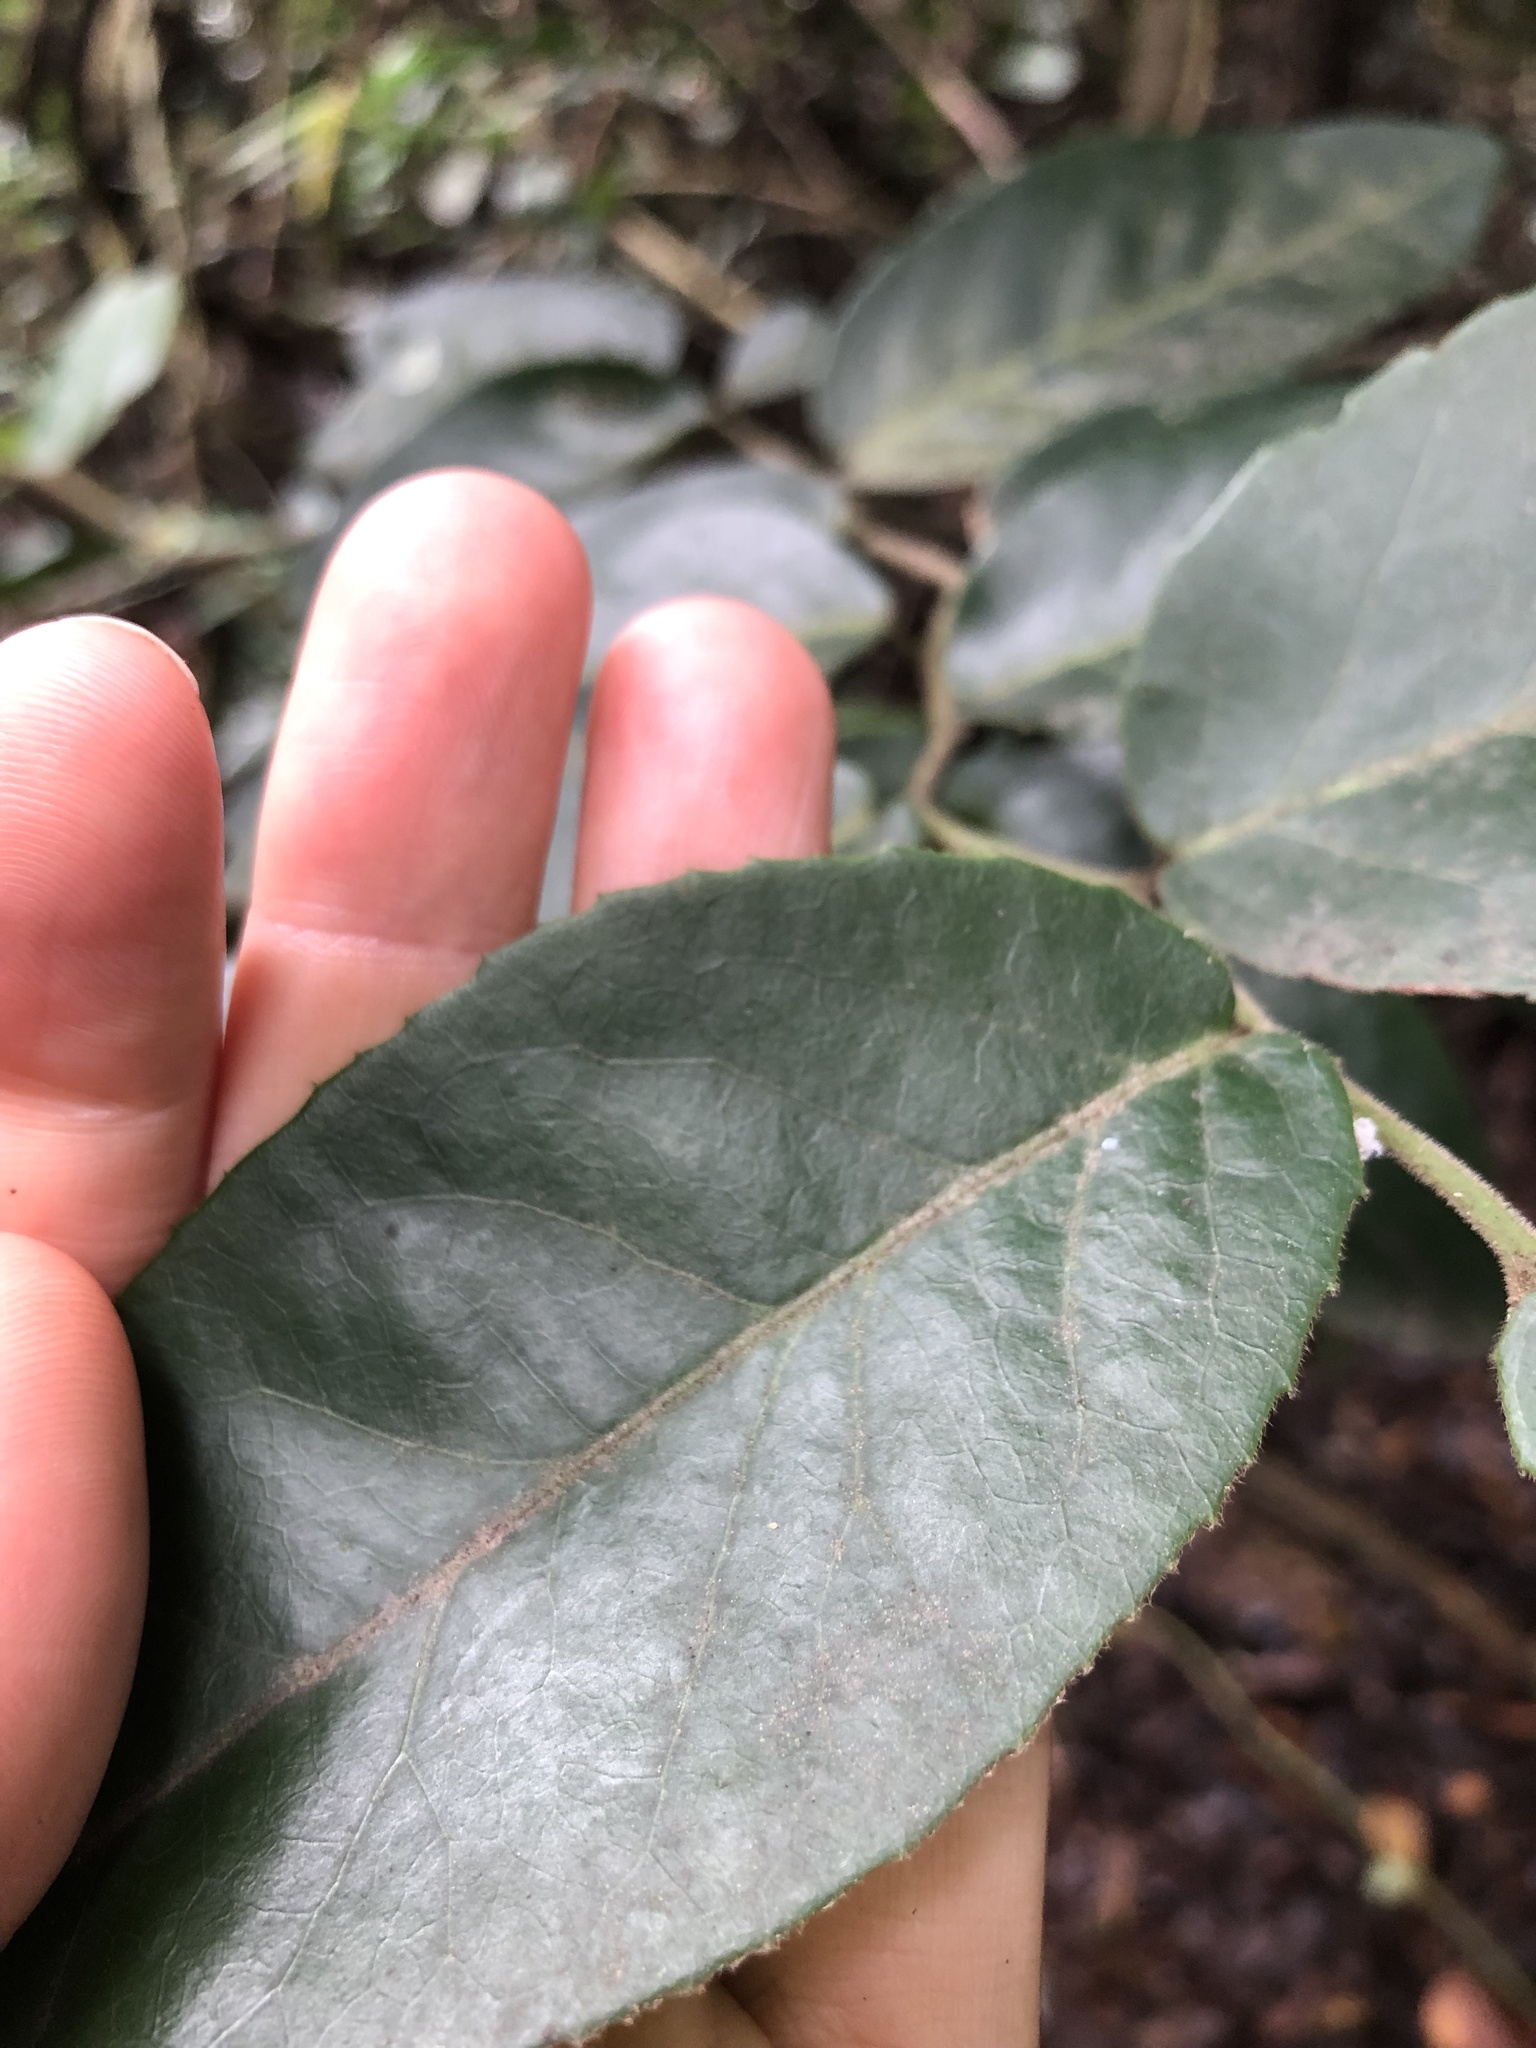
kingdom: Plantae
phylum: Tracheophyta
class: Magnoliopsida
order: Rosales
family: Cannabaceae
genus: Chaetachme
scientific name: Chaetachme aristata
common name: Thorny elm
